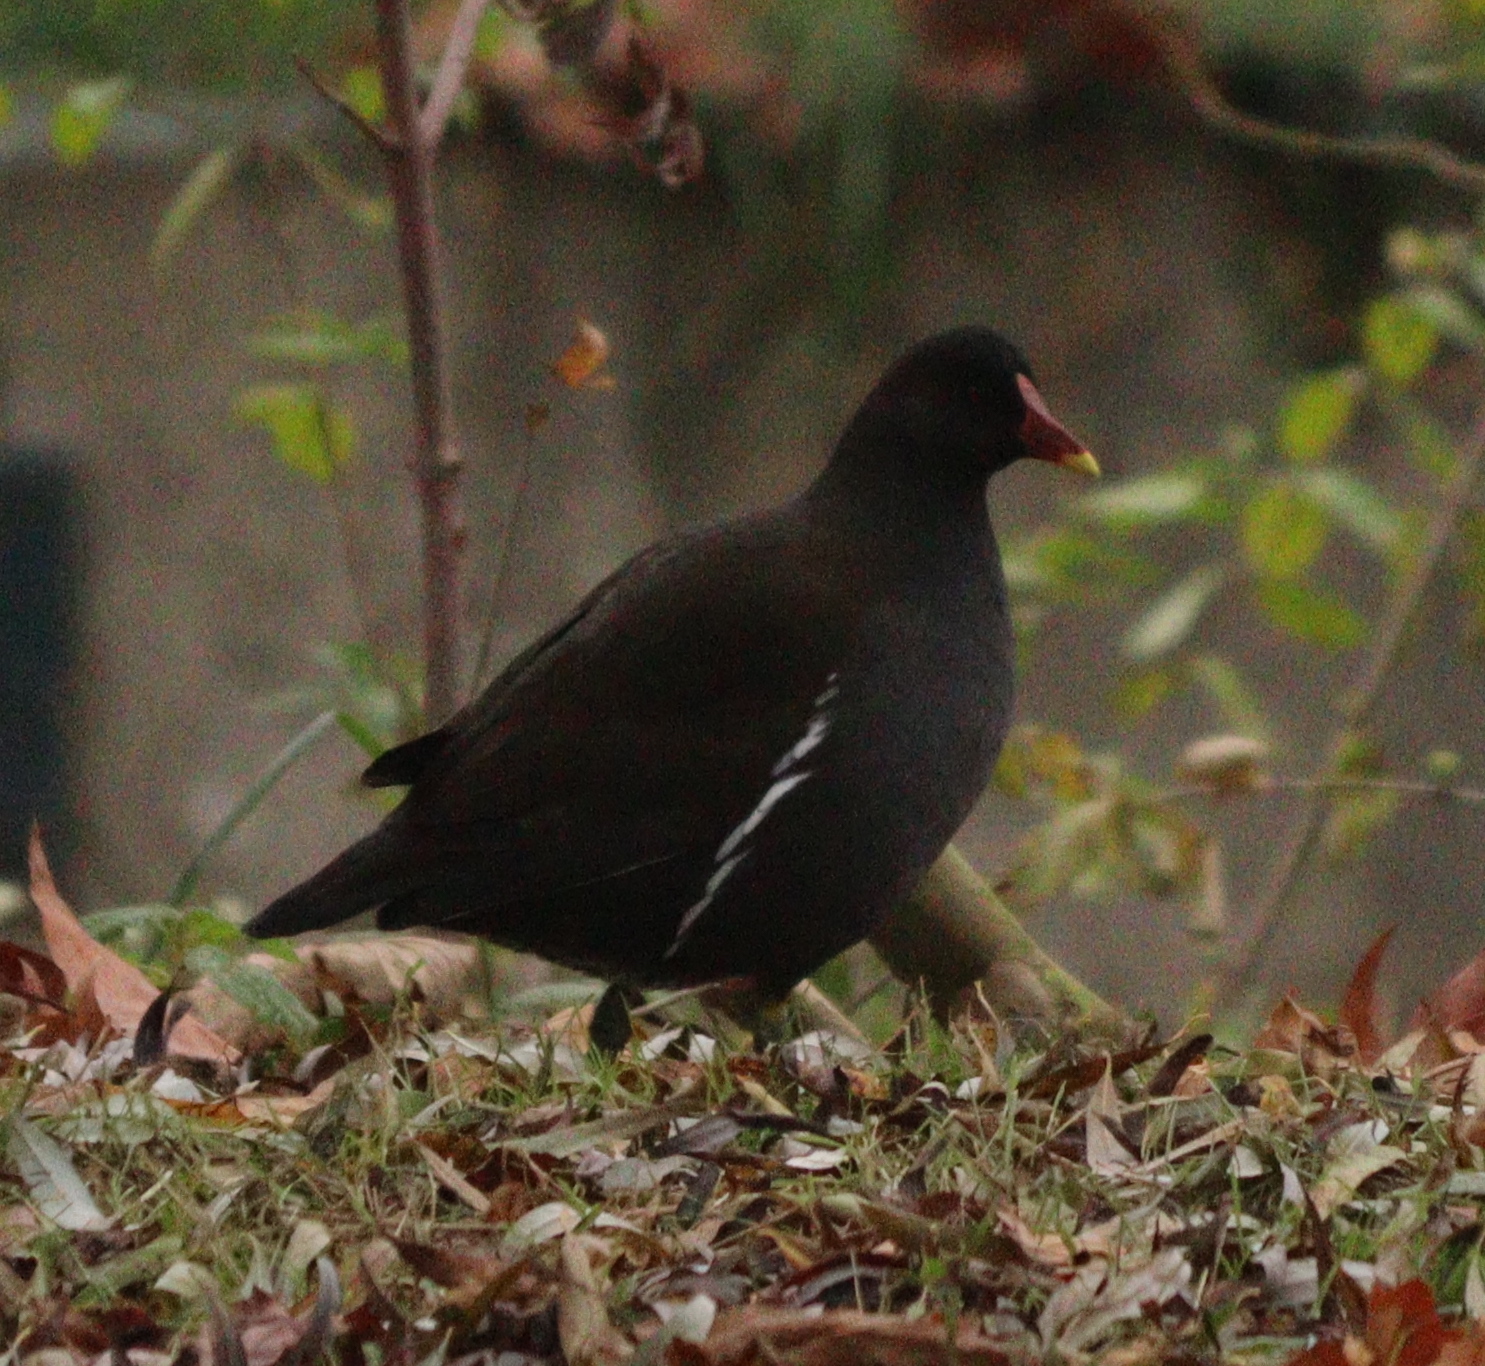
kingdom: Animalia
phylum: Chordata
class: Aves
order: Gruiformes
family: Rallidae
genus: Gallinula
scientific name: Gallinula chloropus
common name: Common moorhen
